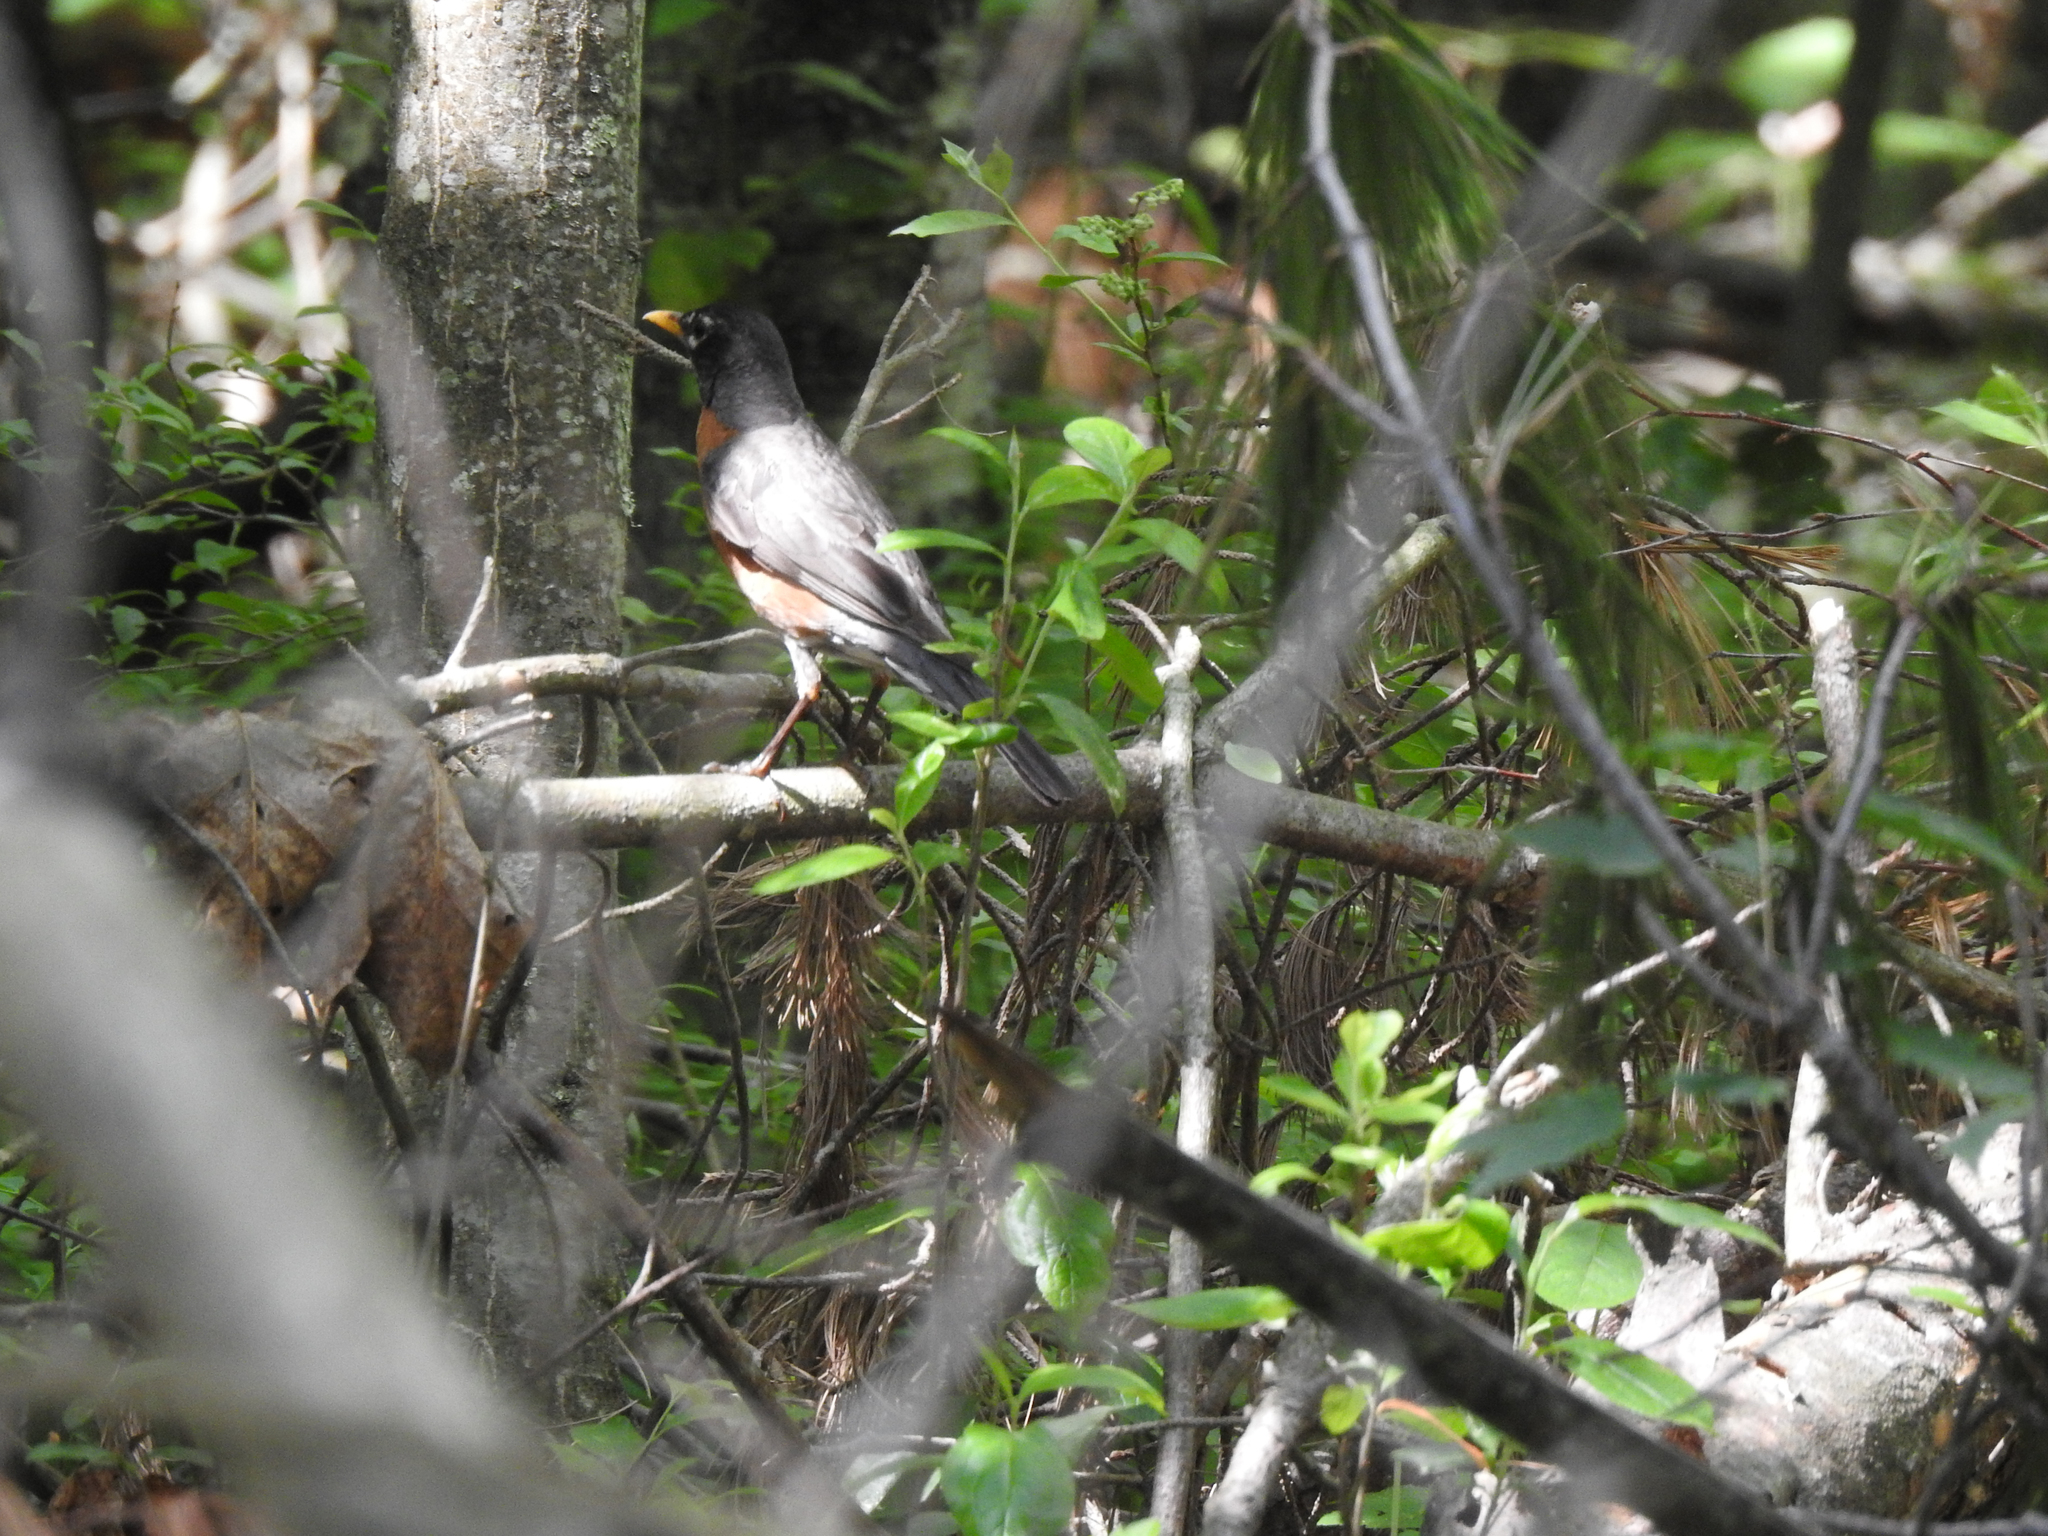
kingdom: Animalia
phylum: Chordata
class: Aves
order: Passeriformes
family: Turdidae
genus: Turdus
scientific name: Turdus migratorius
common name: American robin
